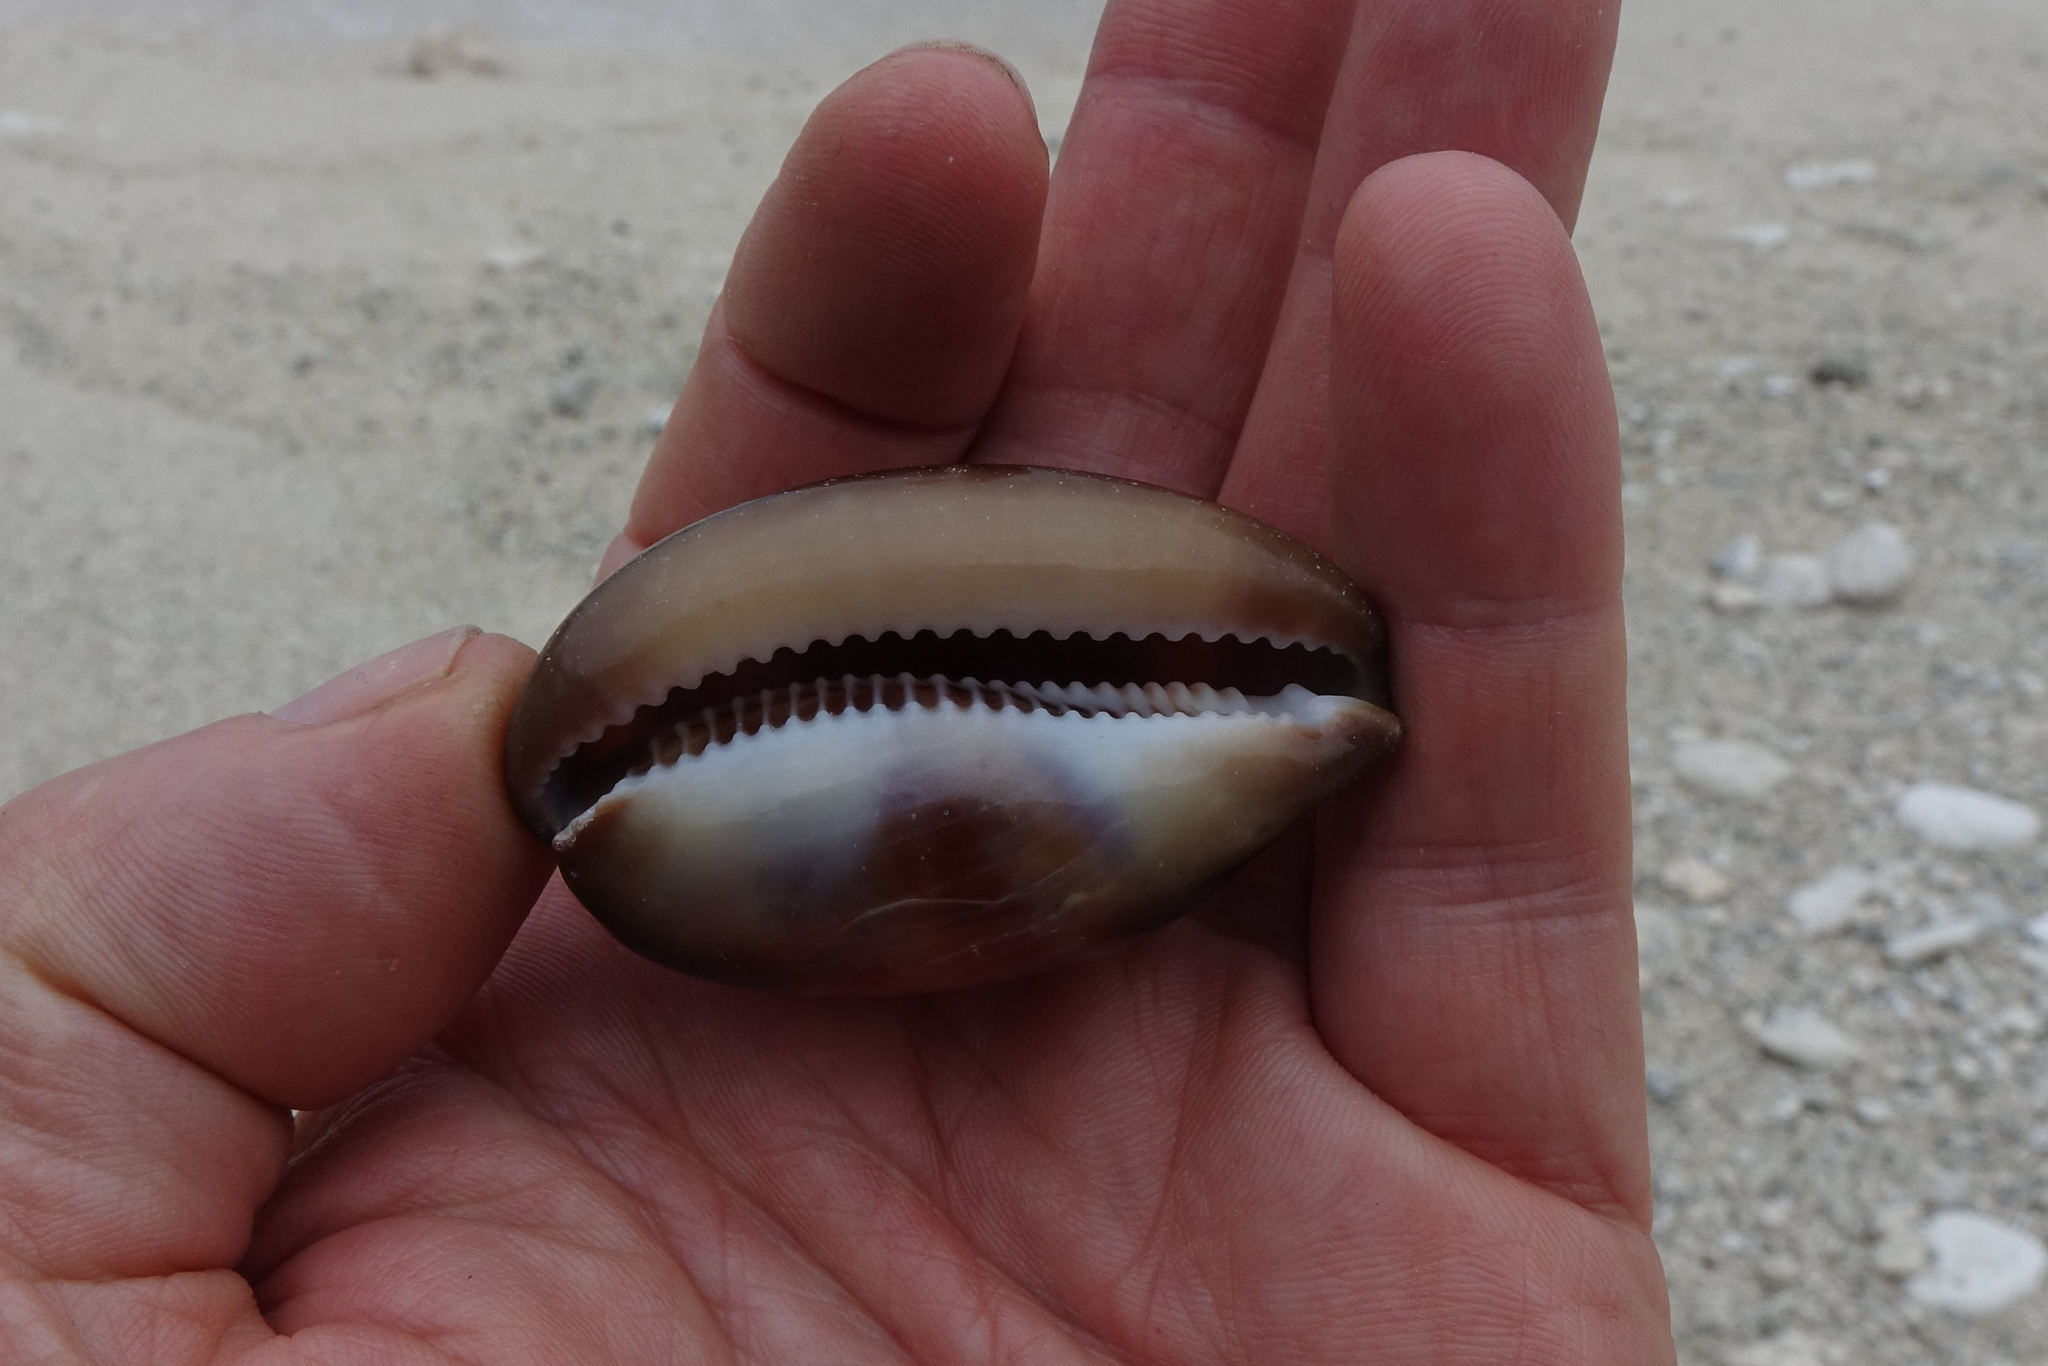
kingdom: Animalia
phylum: Mollusca
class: Gastropoda
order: Littorinimorpha
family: Cypraeidae
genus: Lyncina
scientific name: Lyncina ventriculus
